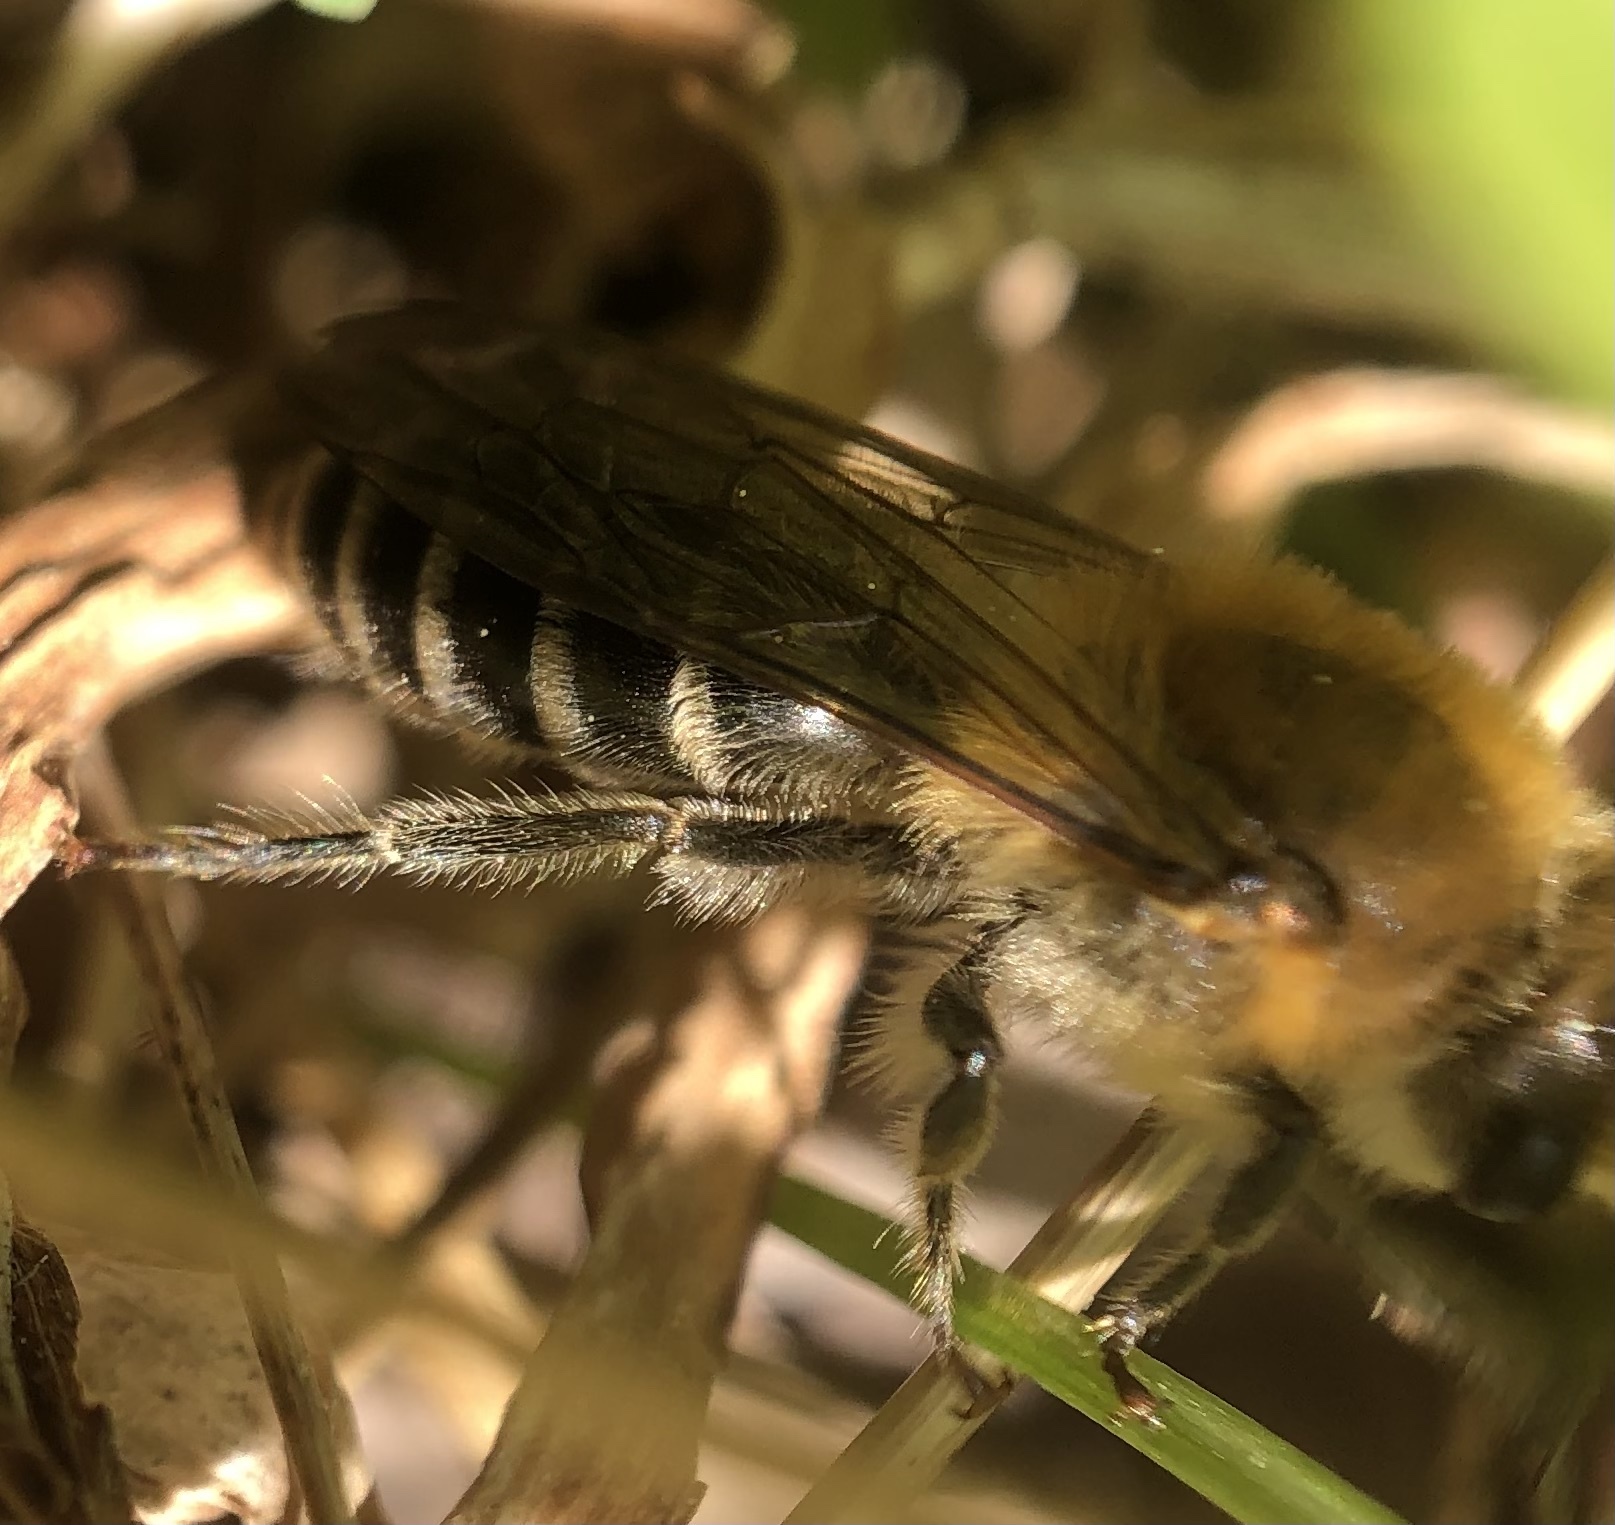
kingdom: Animalia
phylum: Arthropoda
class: Insecta
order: Hymenoptera
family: Colletidae
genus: Colletes
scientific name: Colletes thoracicus
